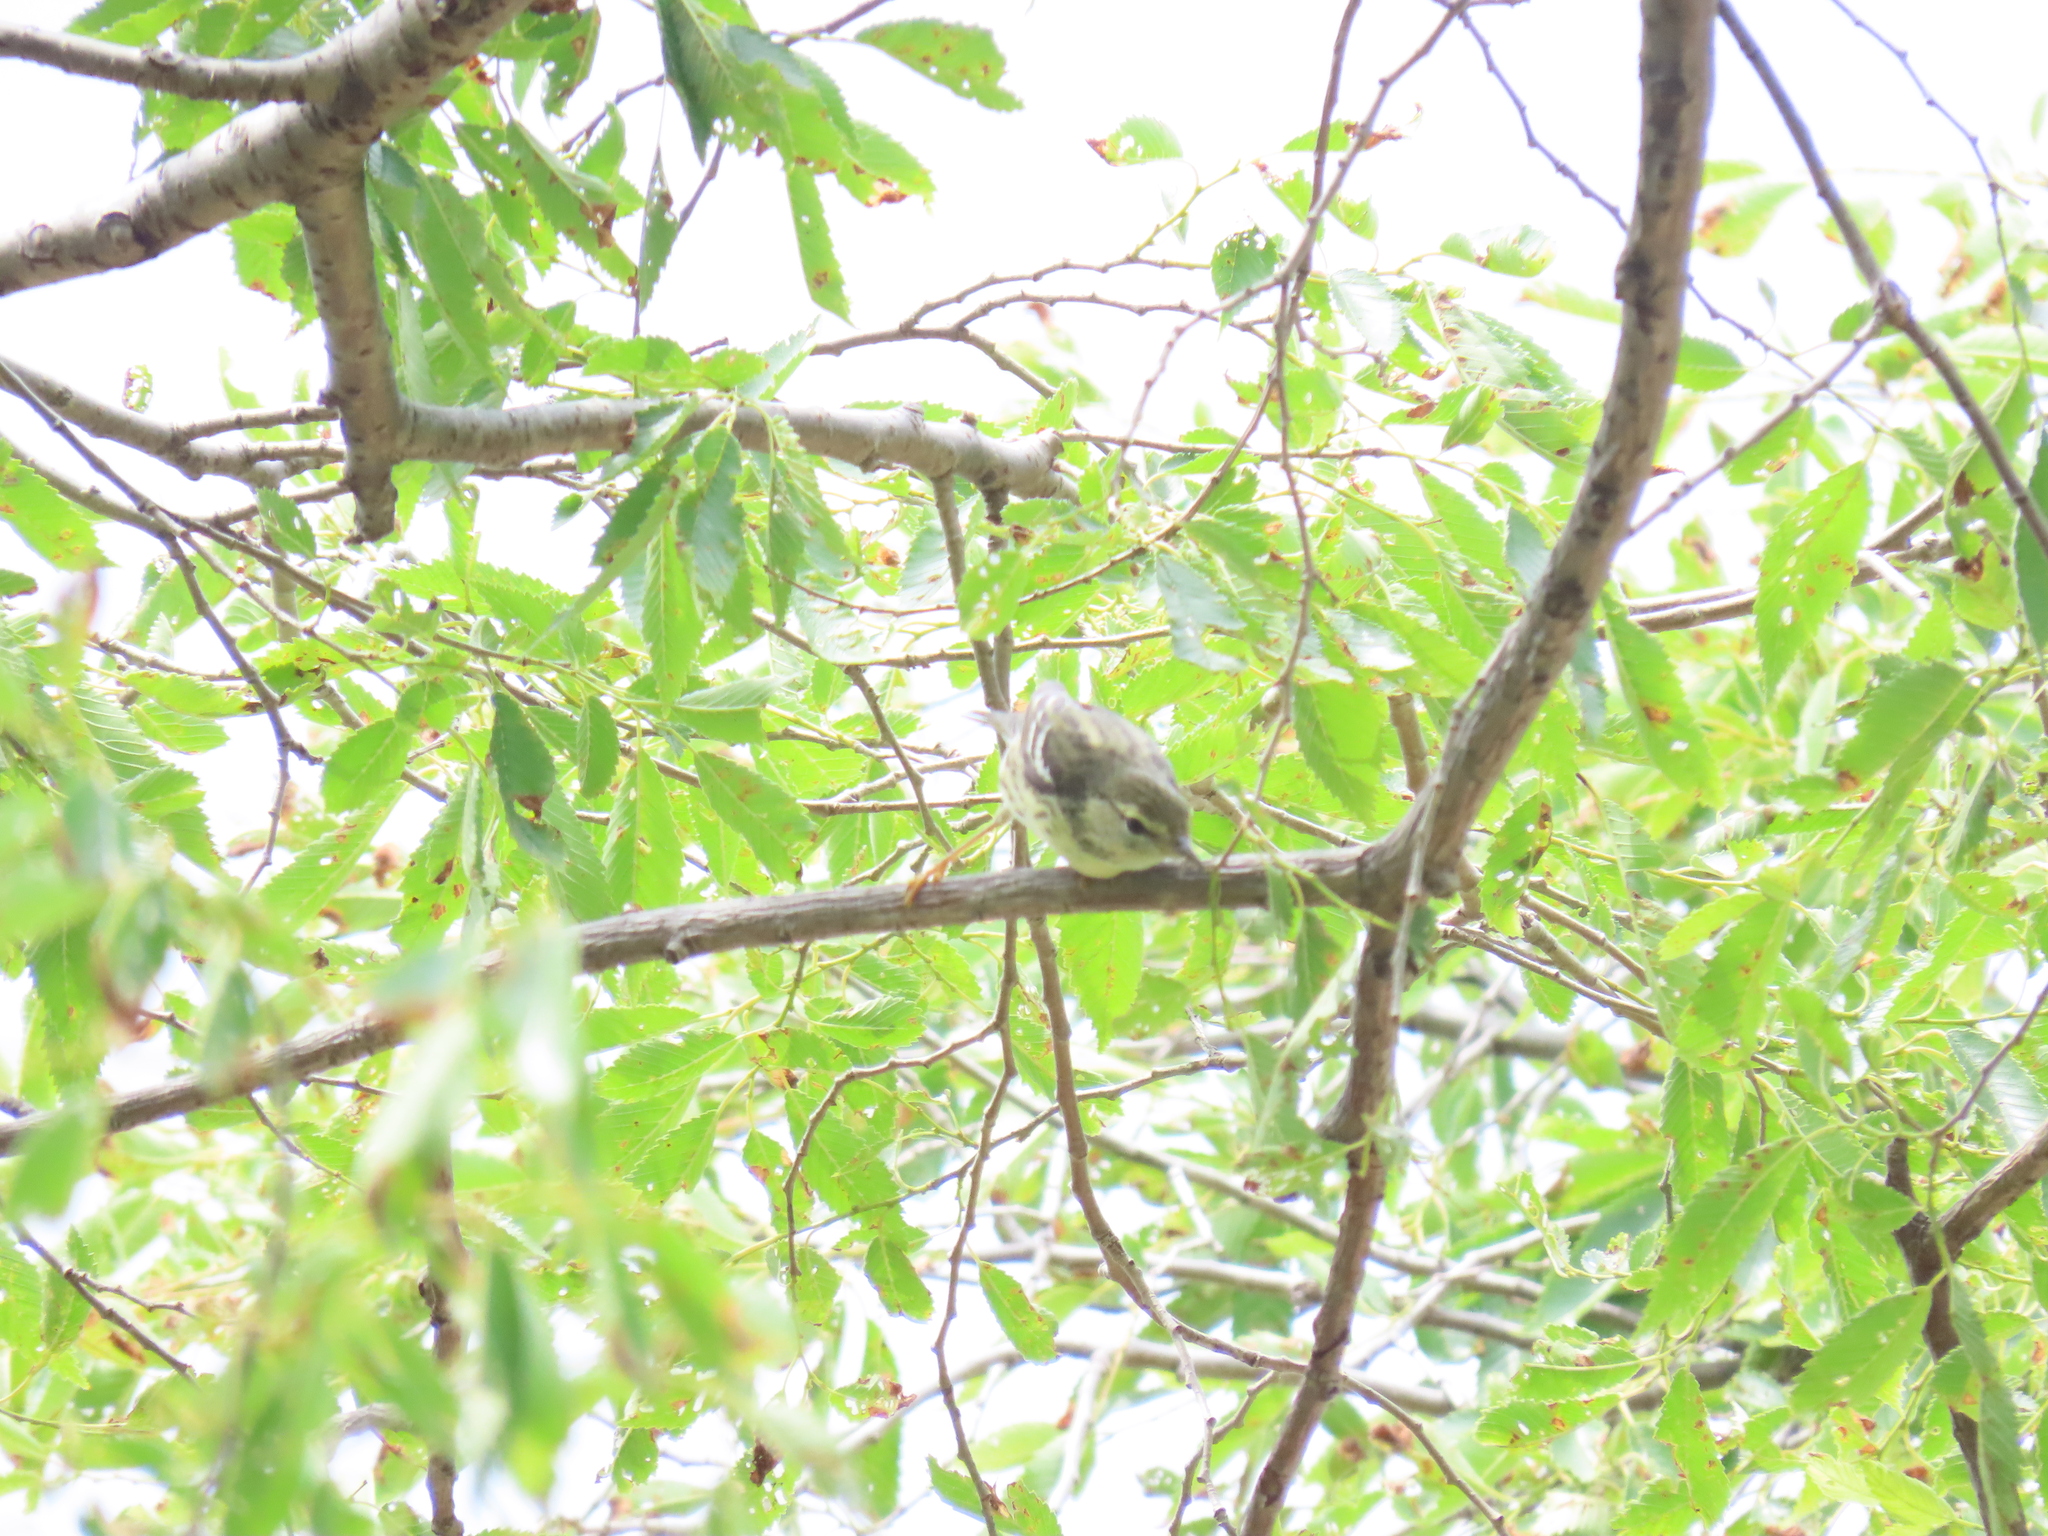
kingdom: Animalia
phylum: Chordata
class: Aves
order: Passeriformes
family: Parulidae
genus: Setophaga
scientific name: Setophaga striata
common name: Blackpoll warbler
